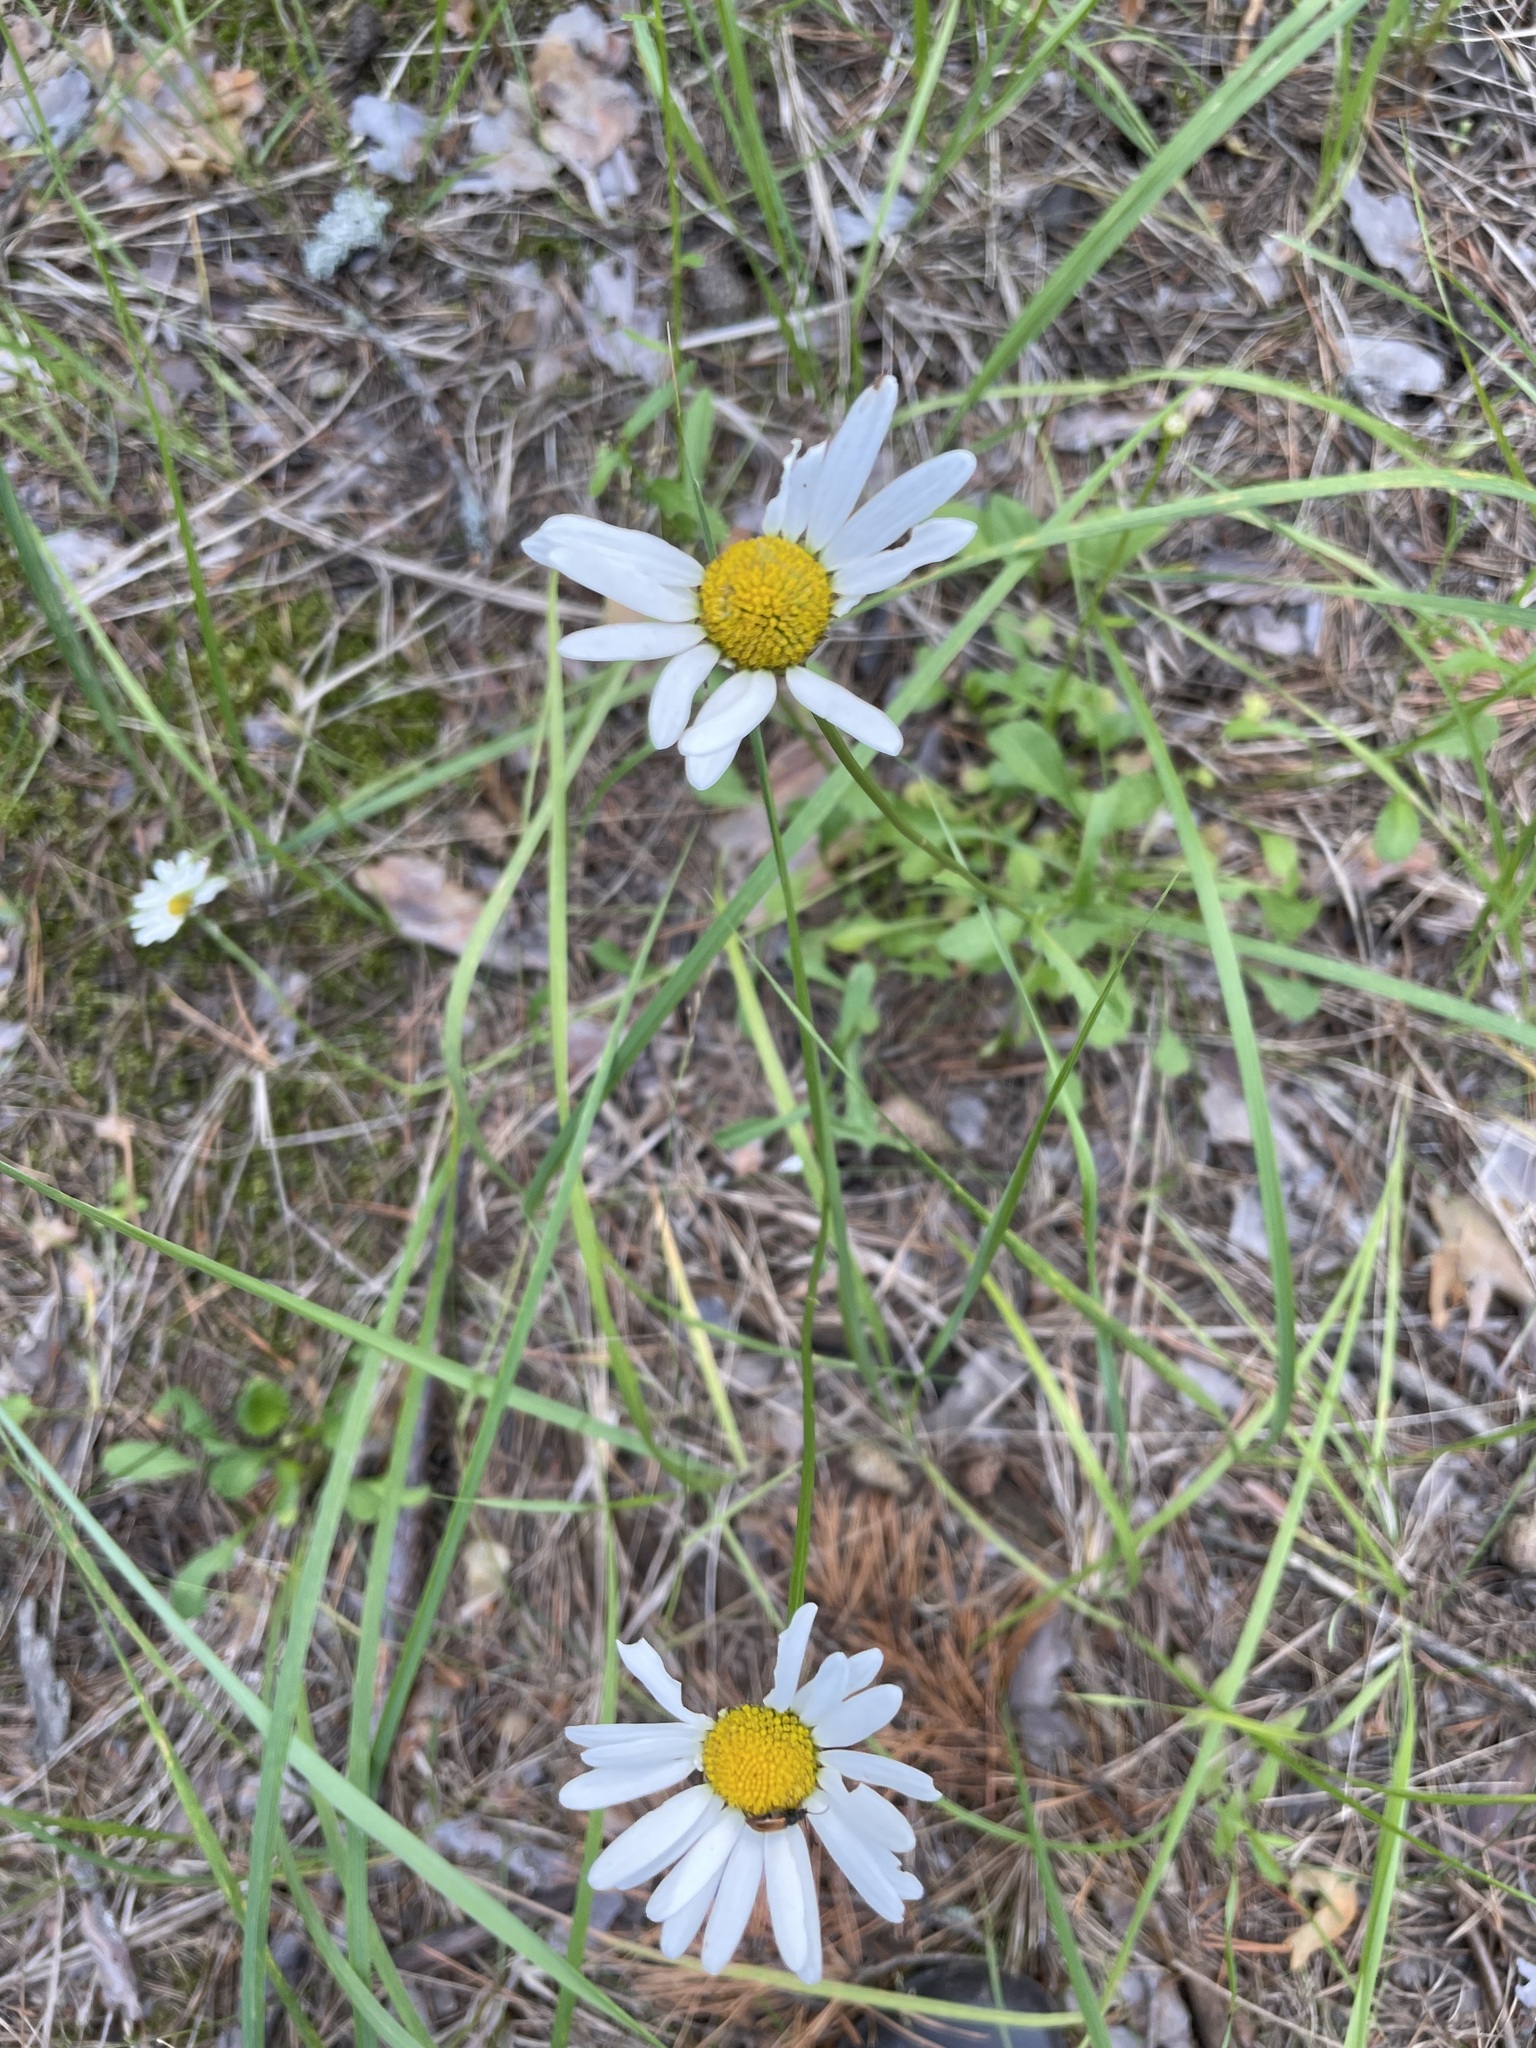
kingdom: Plantae
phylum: Tracheophyta
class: Magnoliopsida
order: Asterales
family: Asteraceae
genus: Leucanthemum
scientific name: Leucanthemum vulgare
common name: Oxeye daisy
